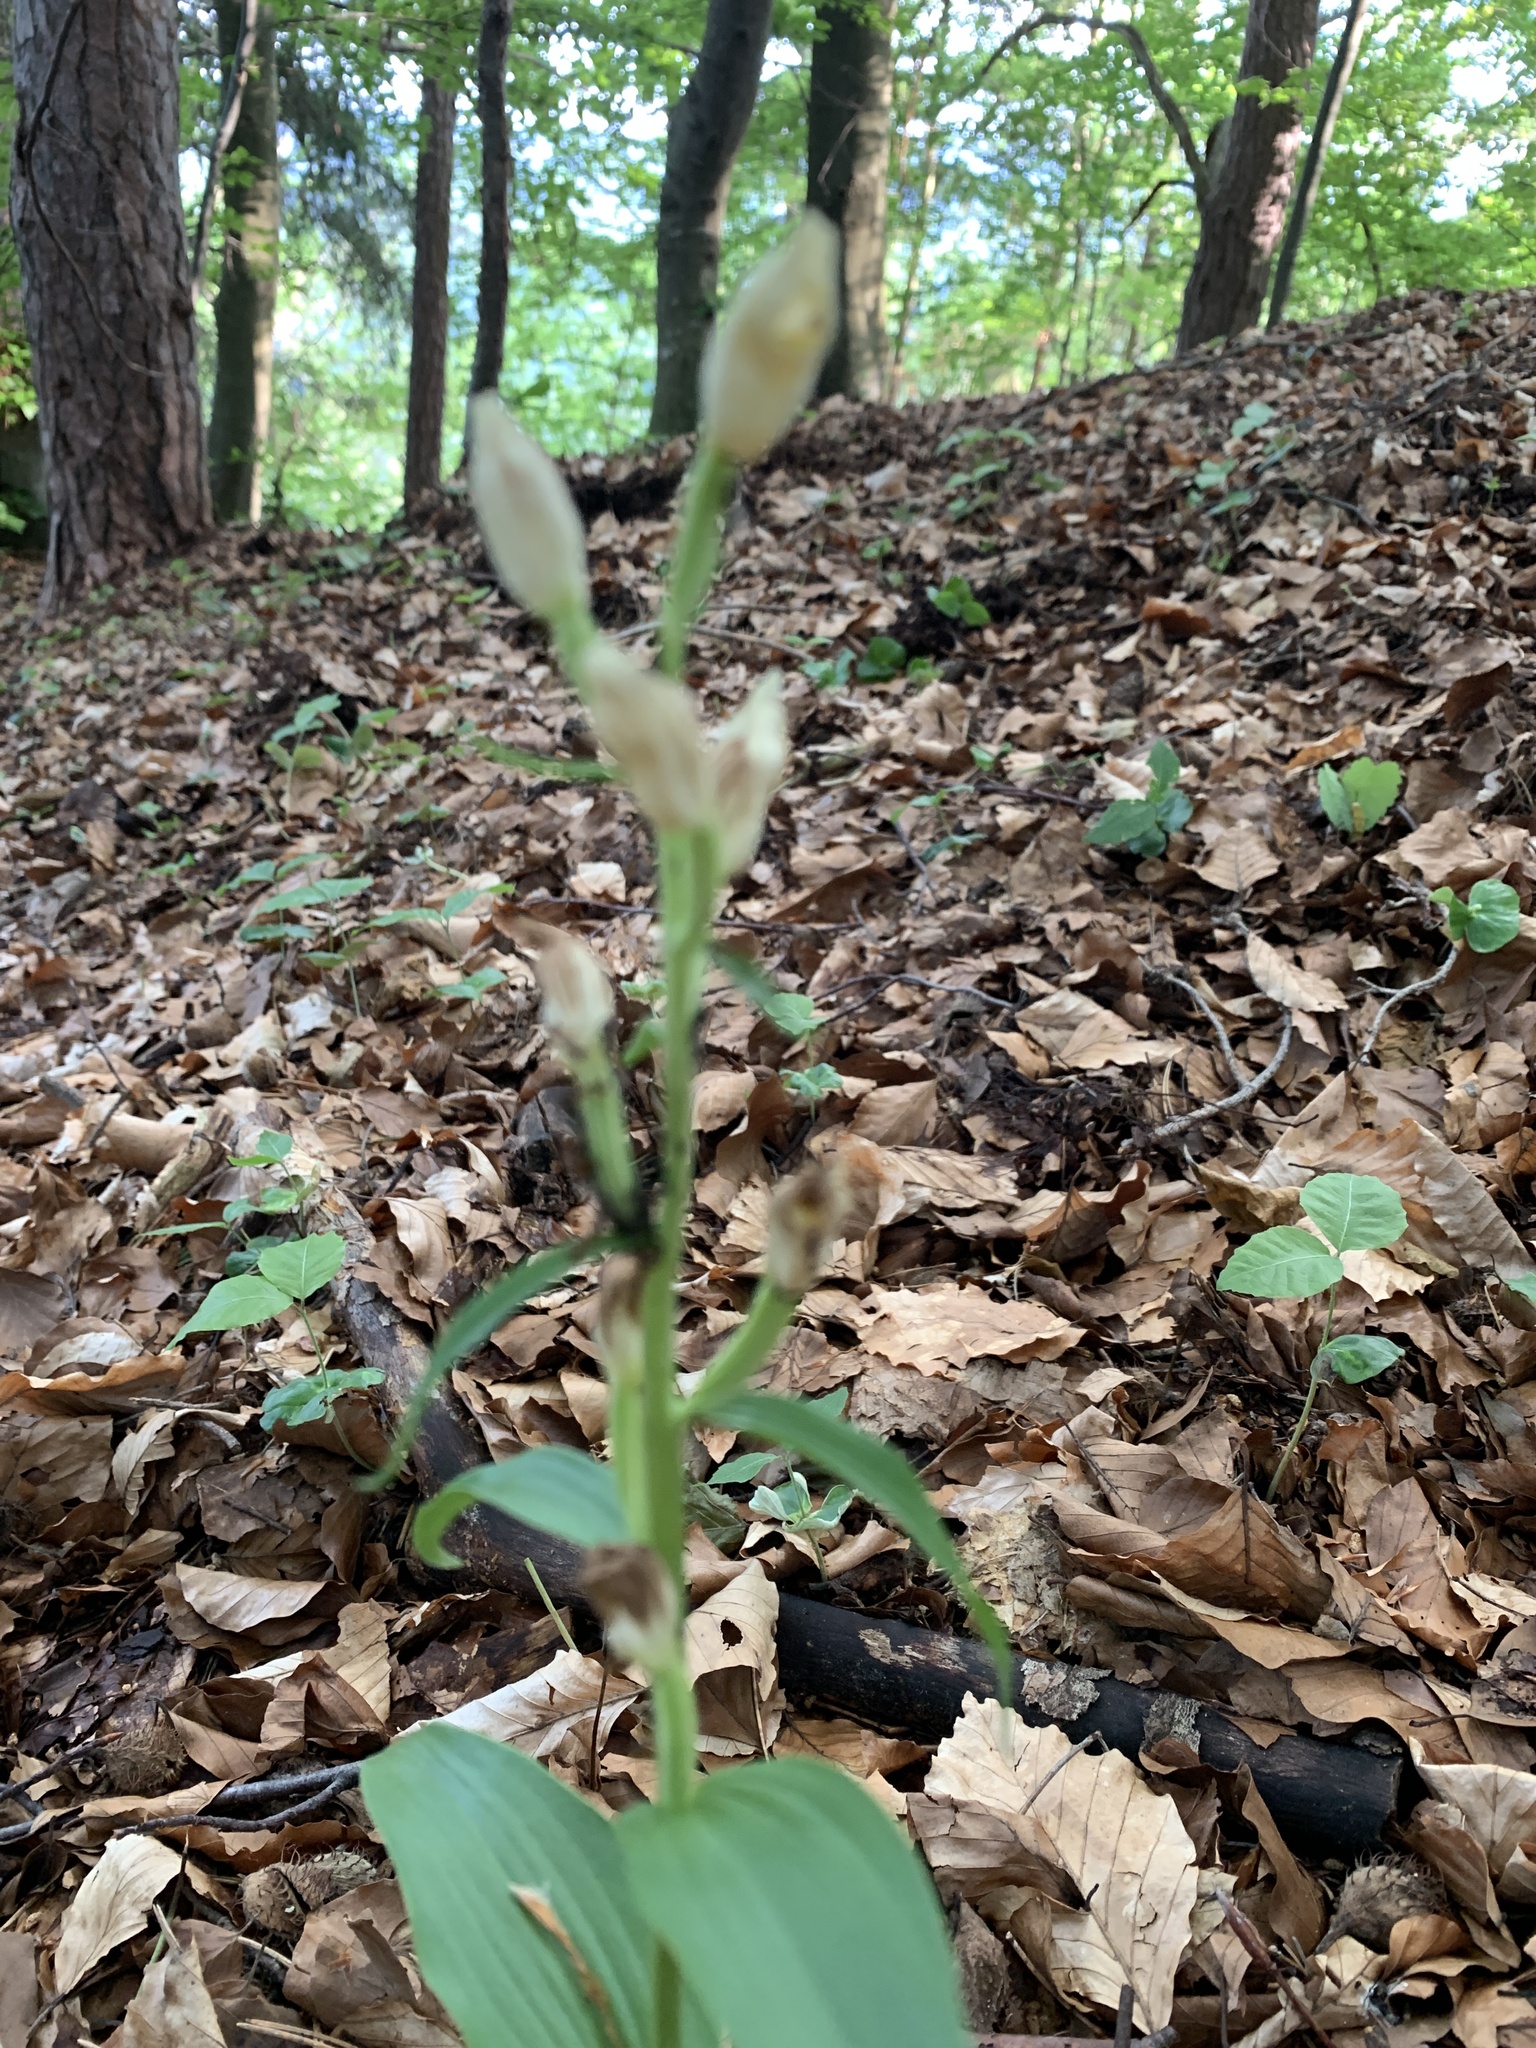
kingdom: Plantae
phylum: Tracheophyta
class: Liliopsida
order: Asparagales
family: Orchidaceae
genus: Cephalanthera
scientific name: Cephalanthera damasonium
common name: White helleborine
